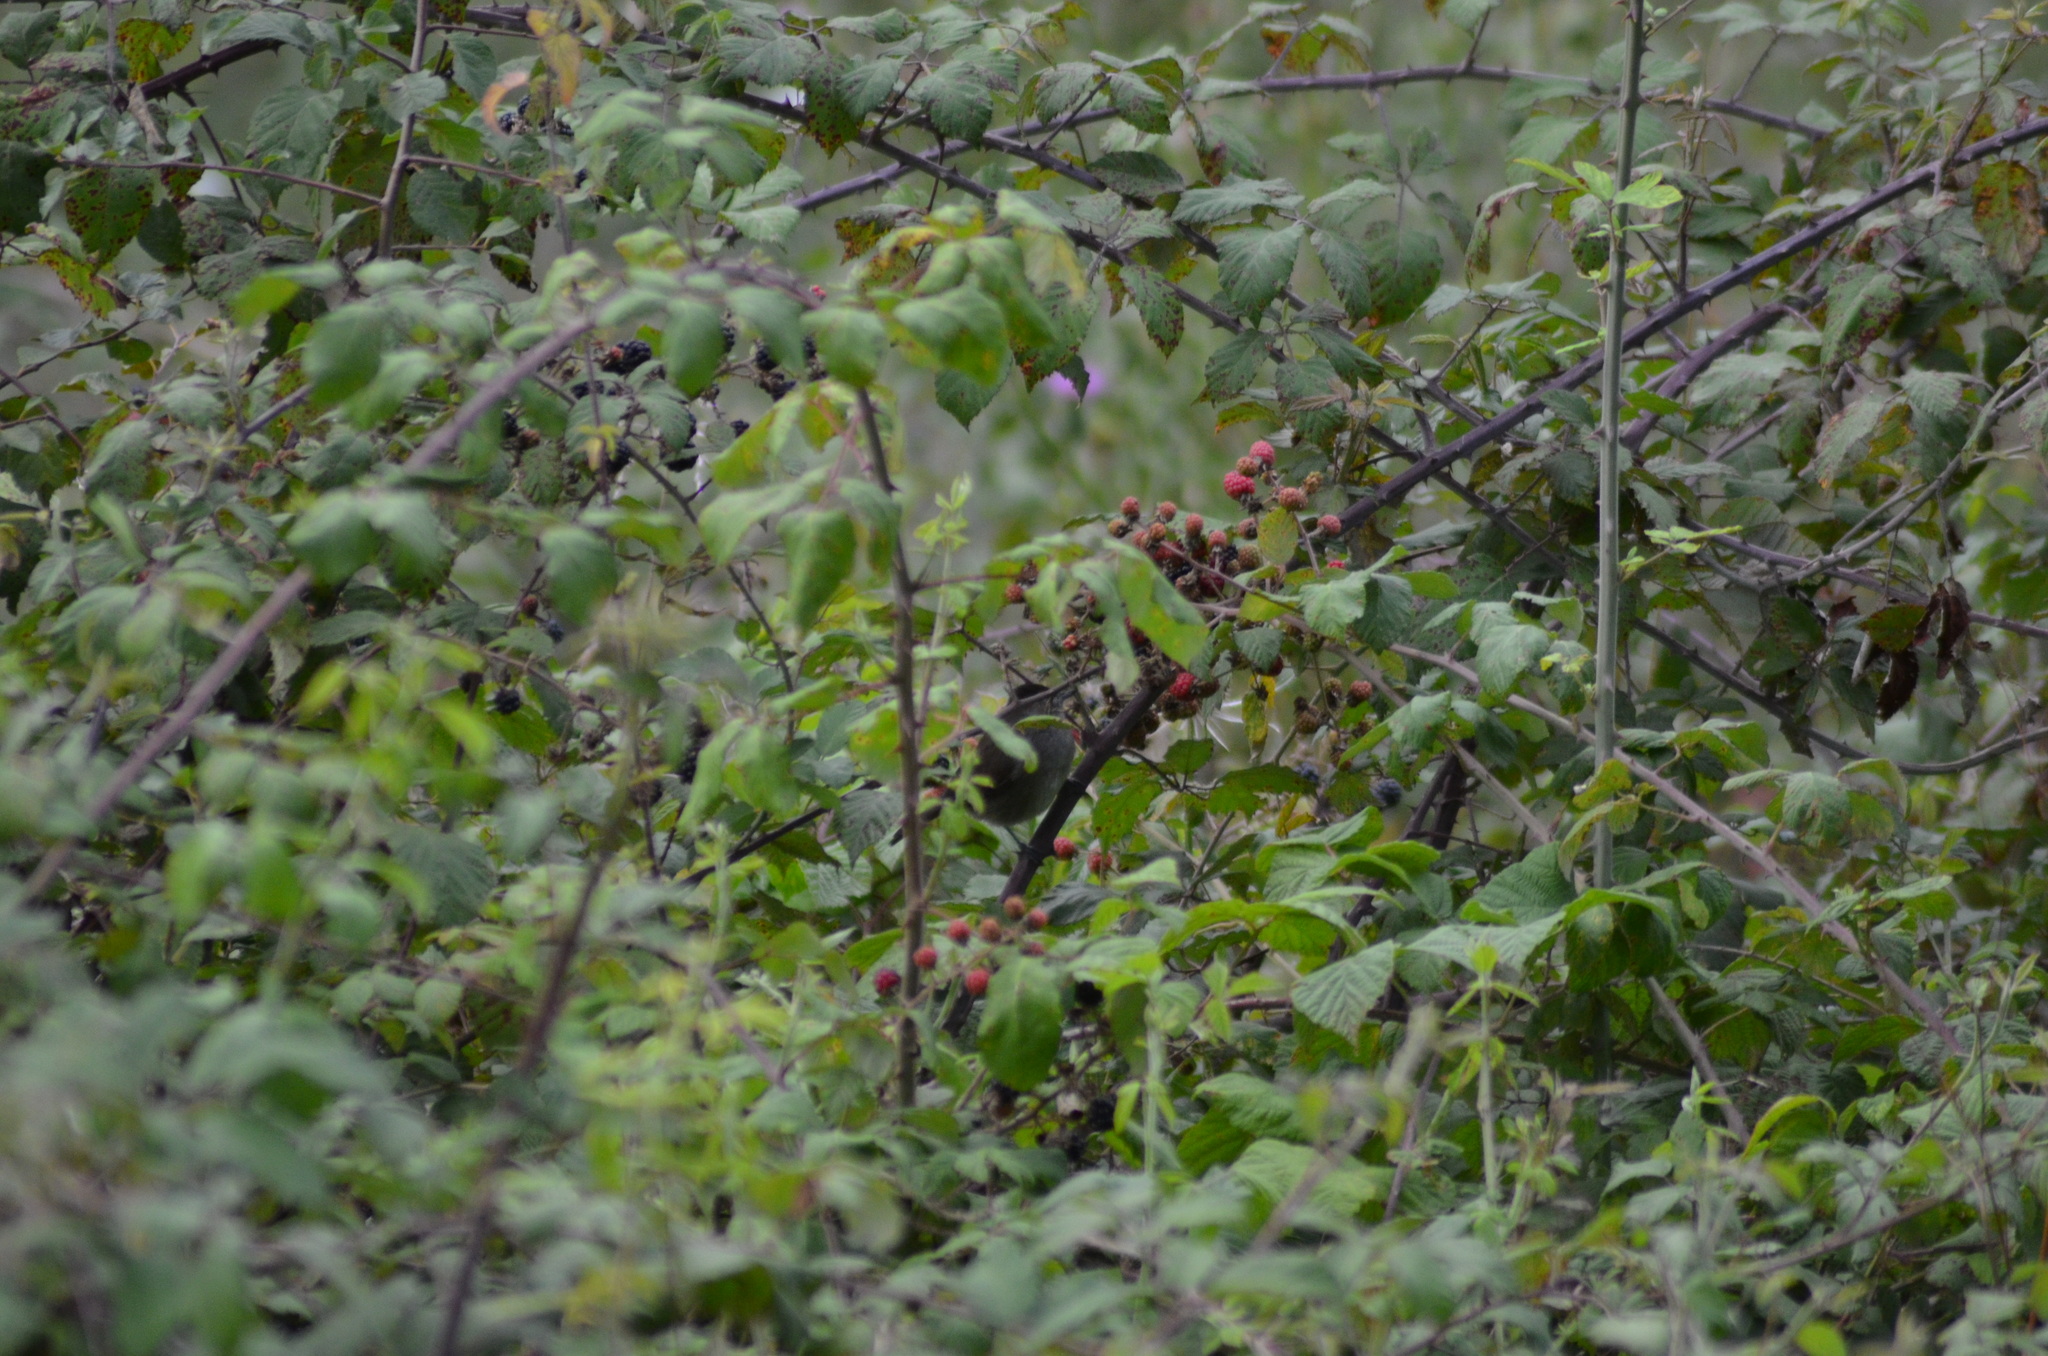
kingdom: Animalia
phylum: Chordata
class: Aves
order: Passeriformes
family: Sylviidae
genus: Sylvia
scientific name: Sylvia atricapilla
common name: Eurasian blackcap
